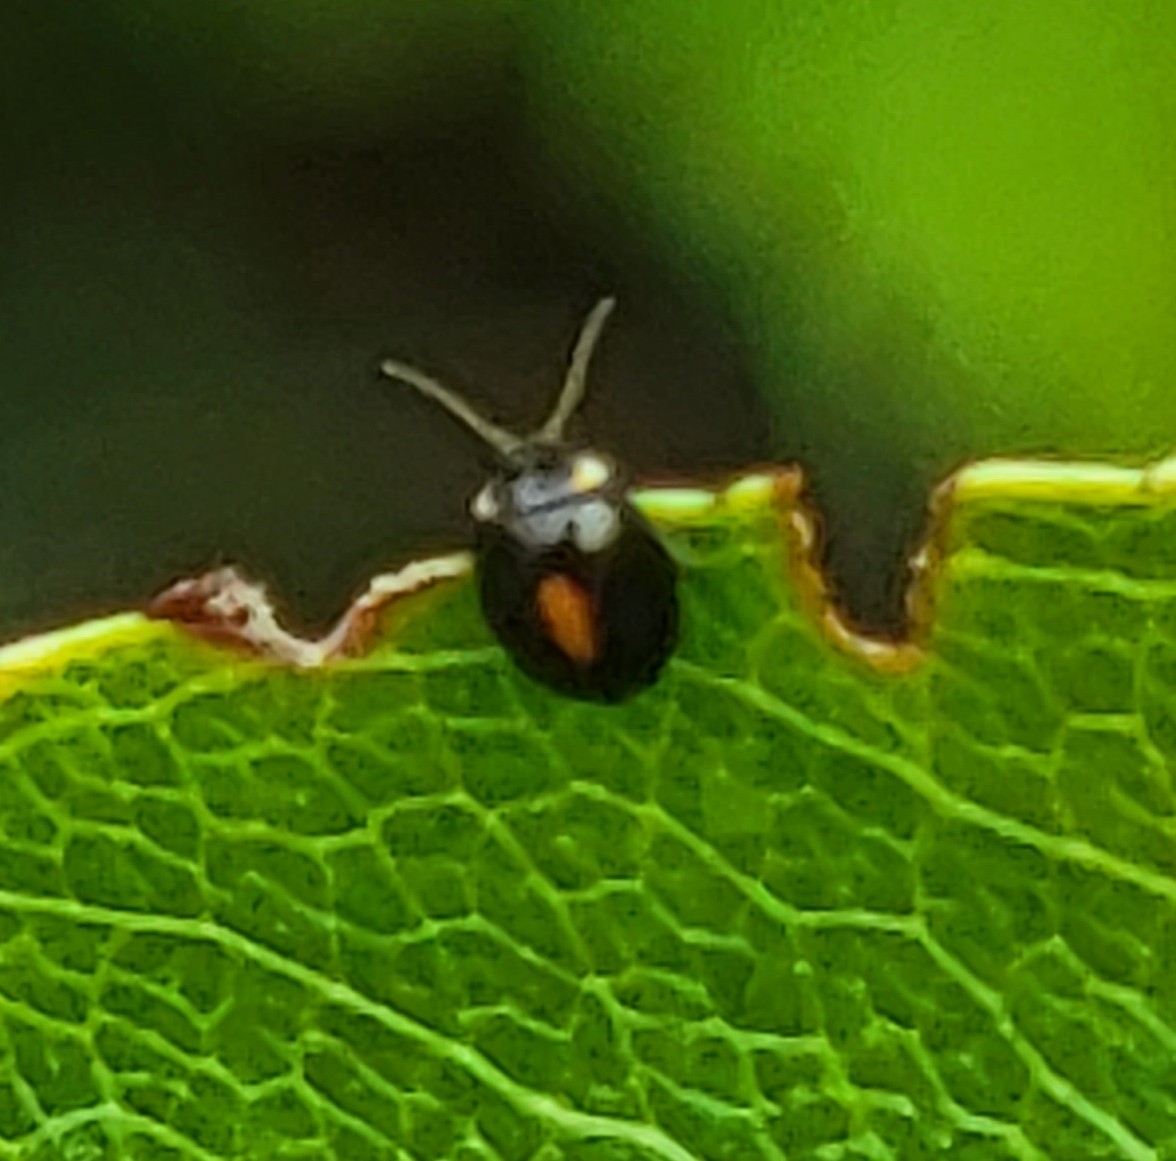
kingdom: Animalia
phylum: Arthropoda
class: Insecta
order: Coleoptera
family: Scirtidae
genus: Scirtes
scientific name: Scirtes orbiculatus
